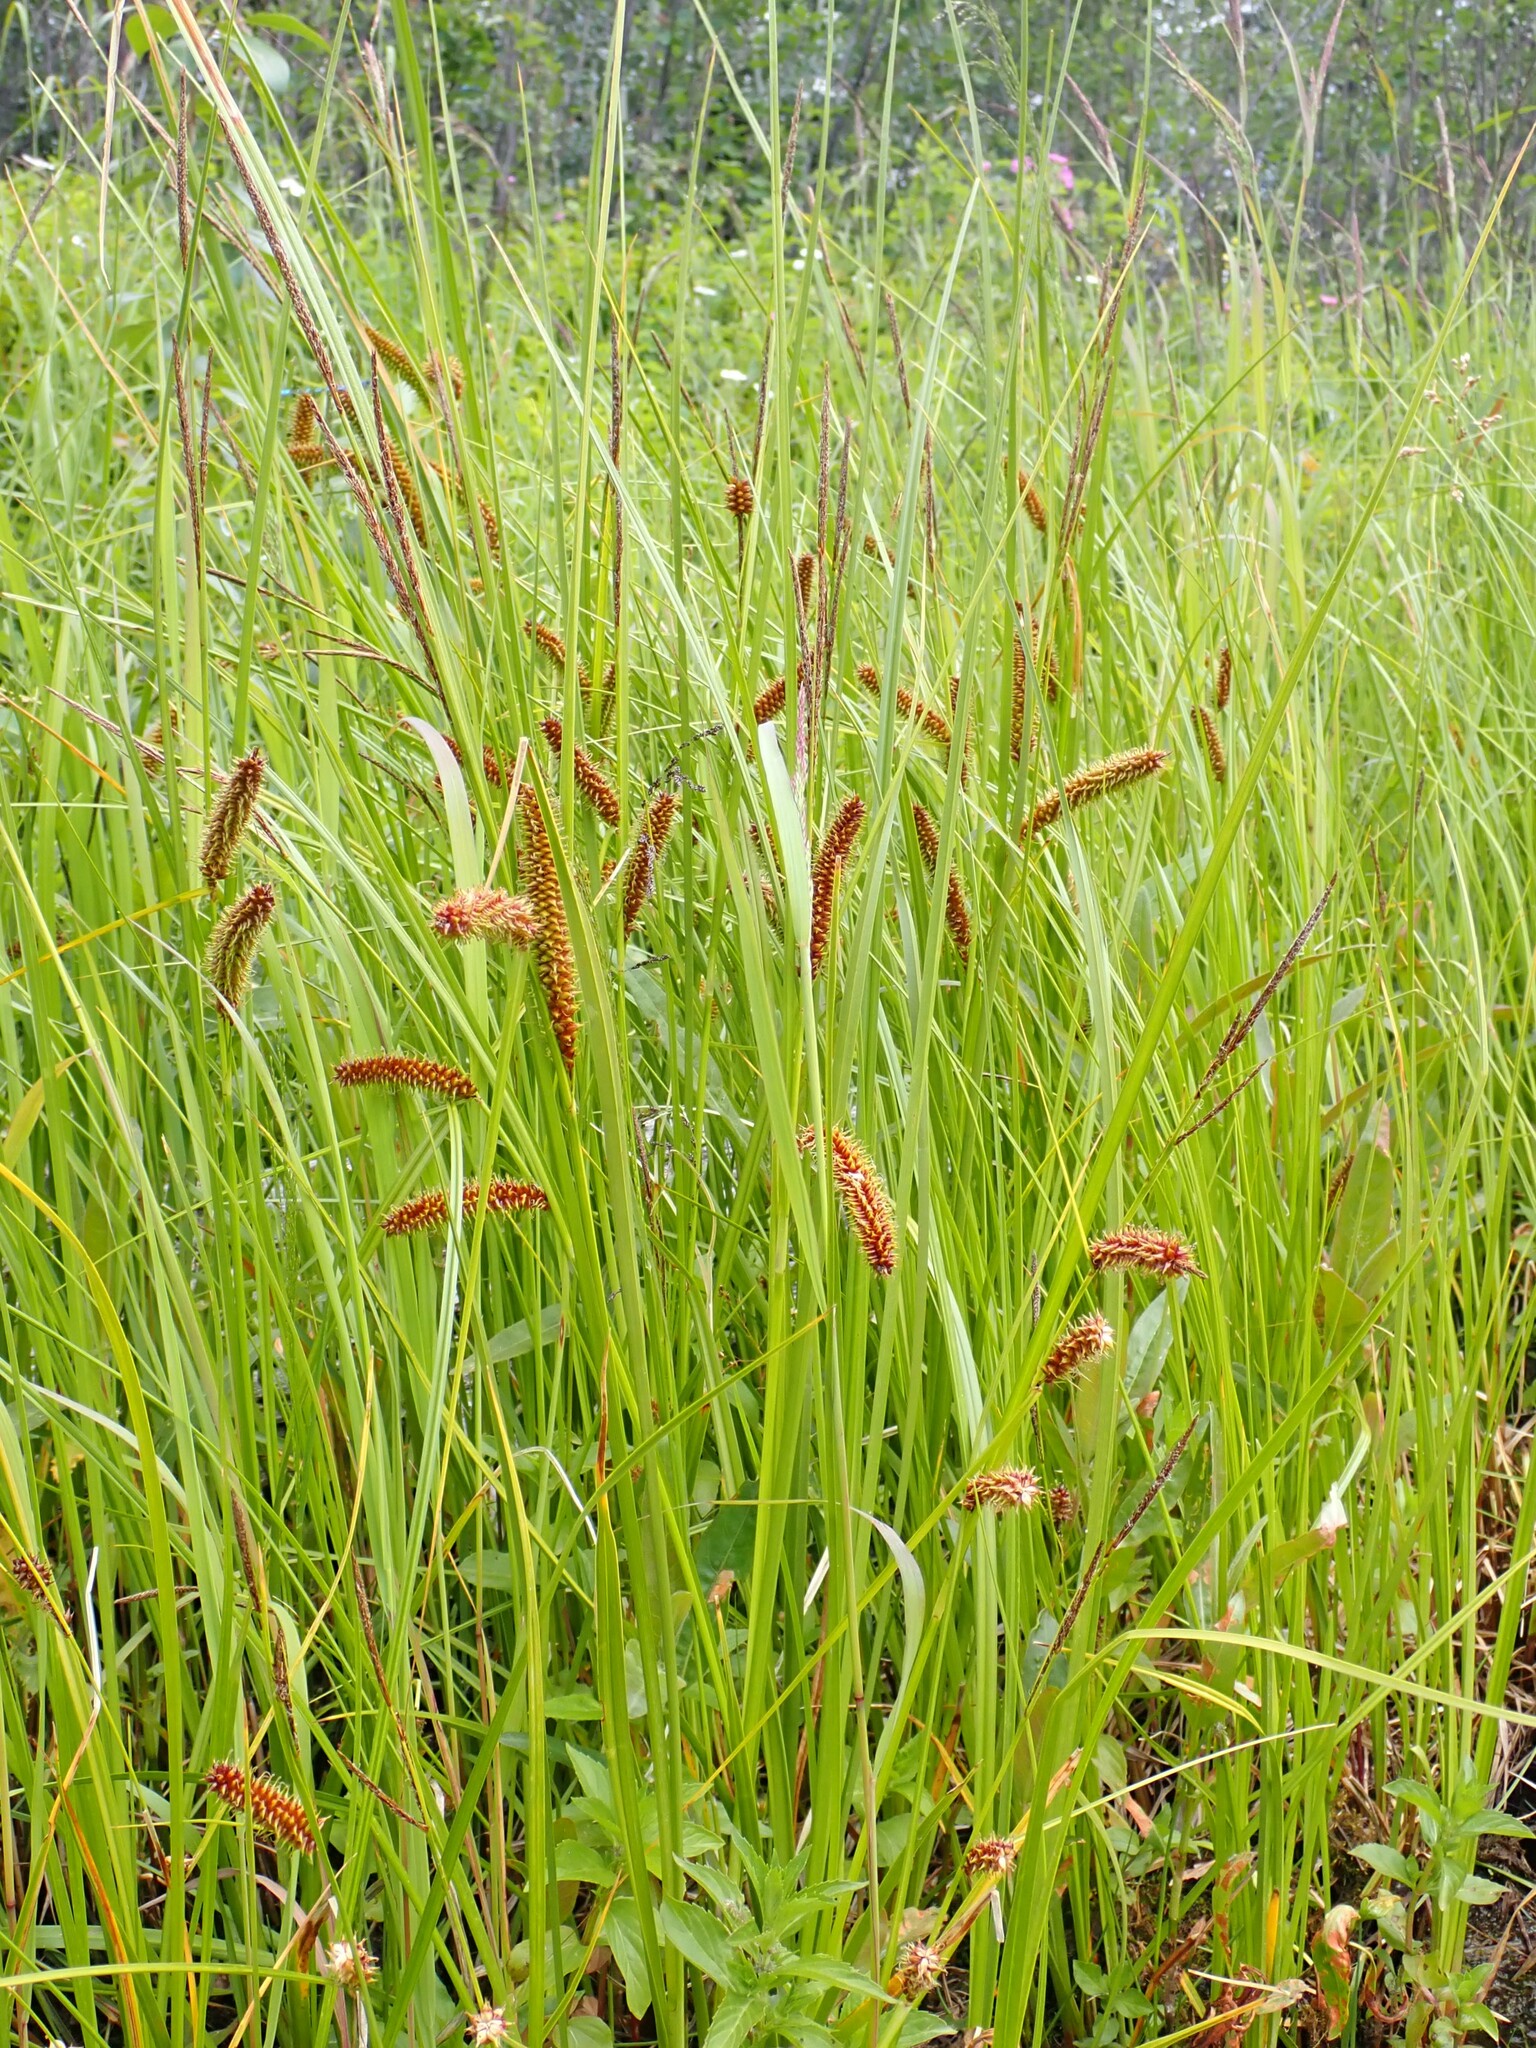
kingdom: Plantae
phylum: Tracheophyta
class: Liliopsida
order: Poales
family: Cyperaceae
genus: Carex
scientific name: Carex utriculata
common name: Beaked sedge
